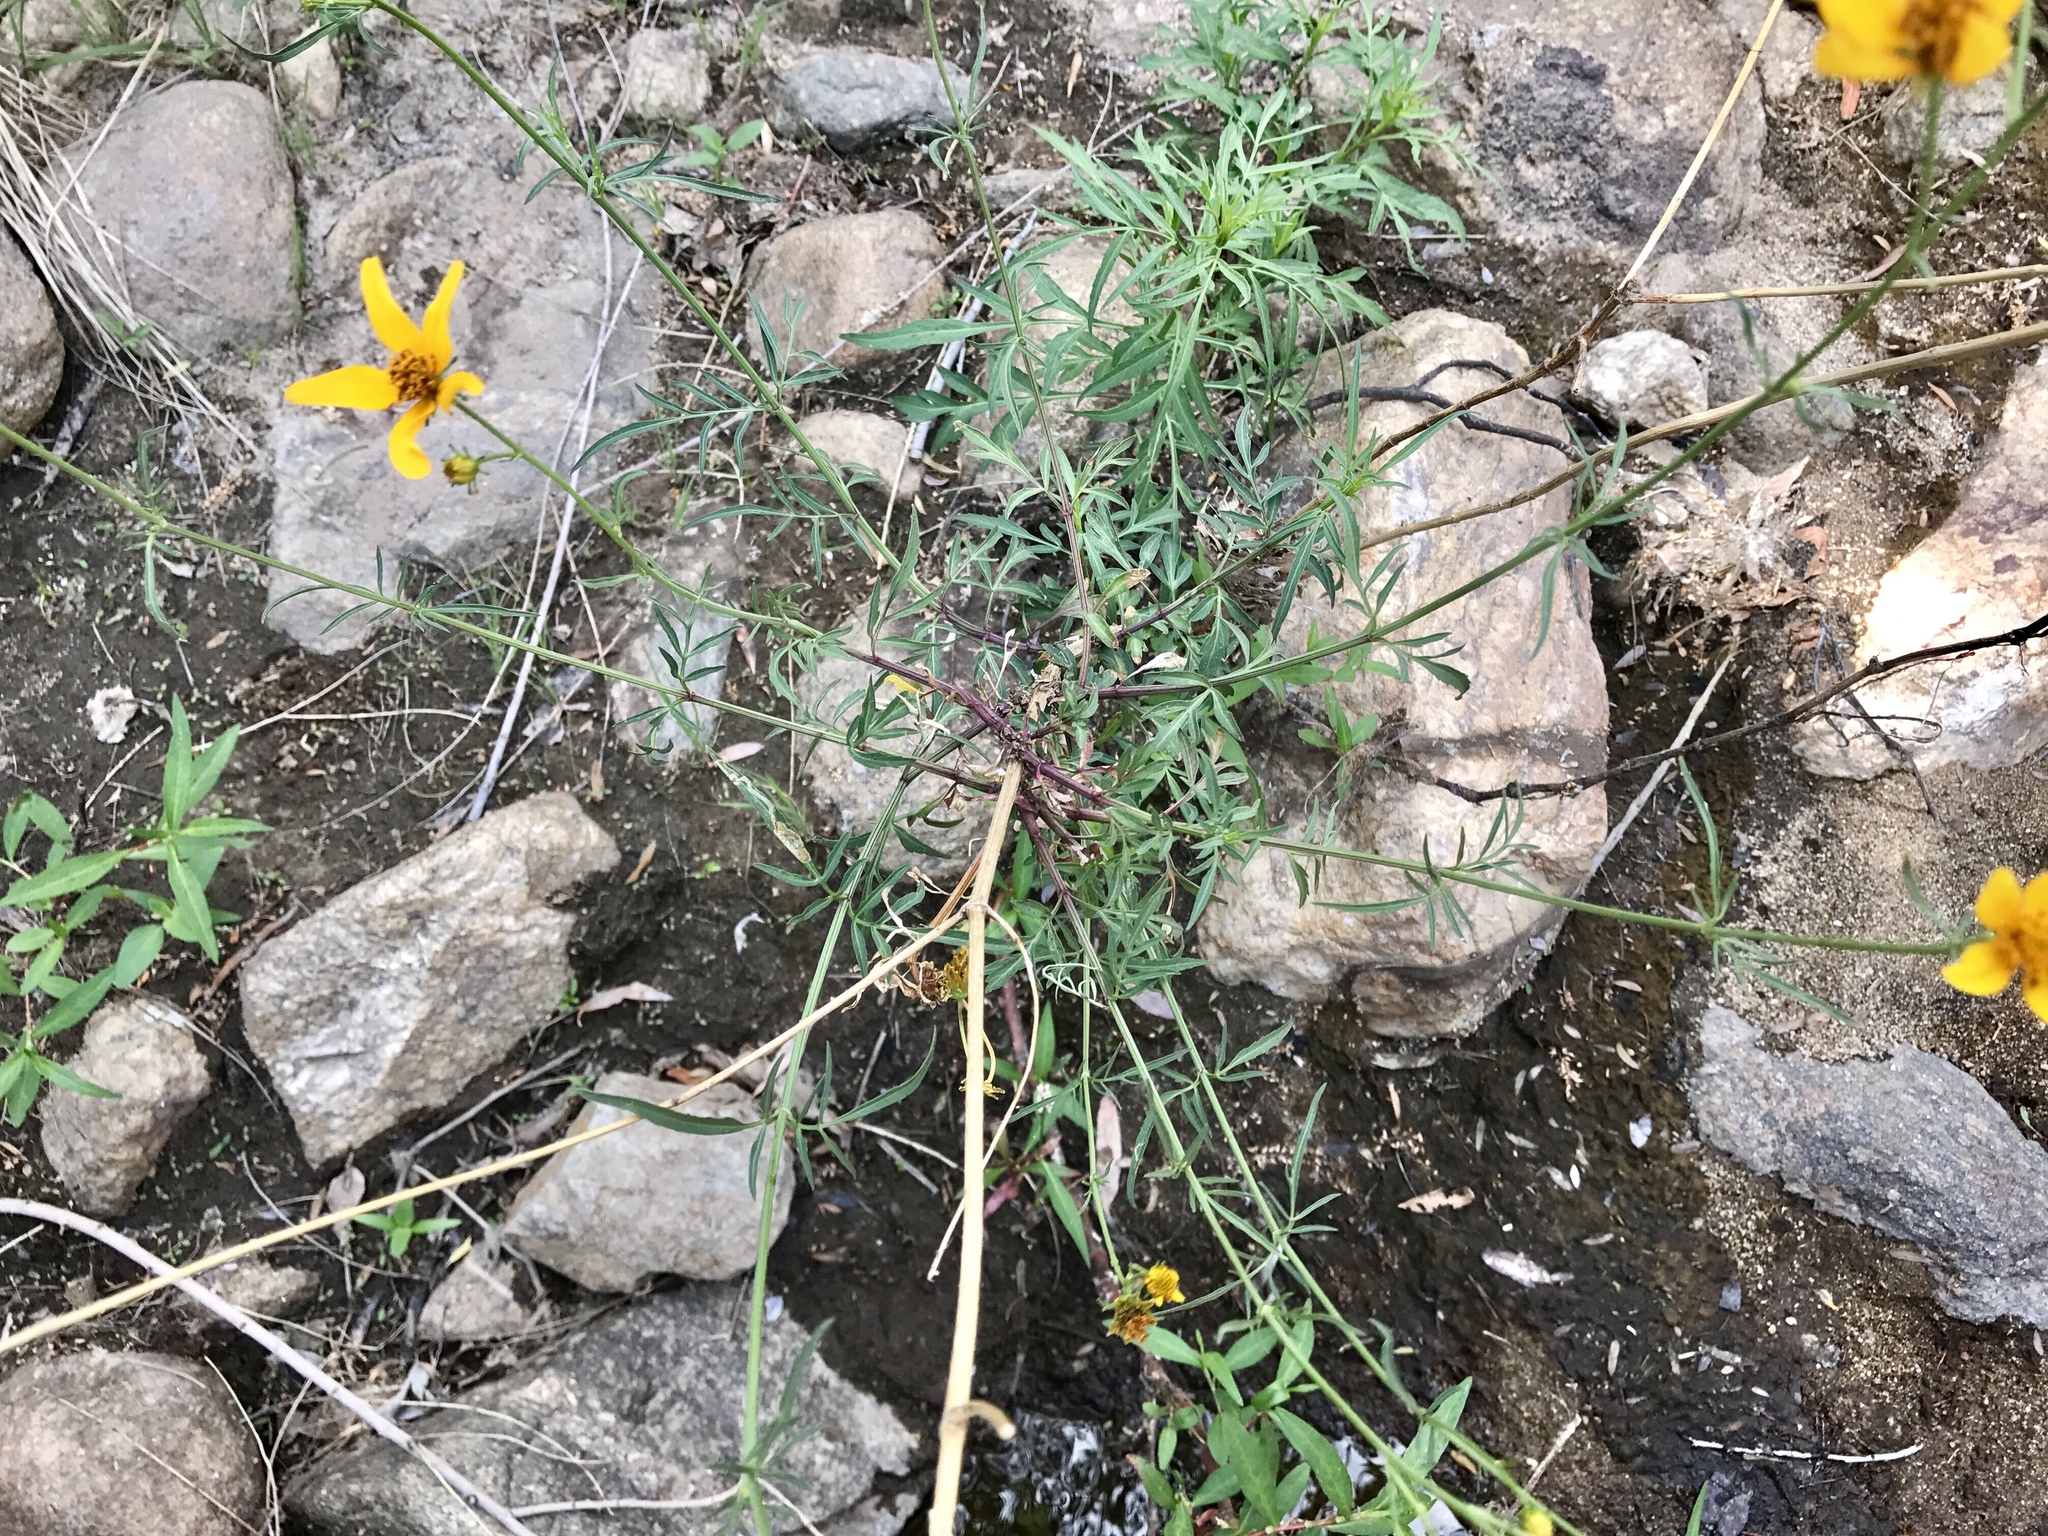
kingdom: Plantae
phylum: Tracheophyta
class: Magnoliopsida
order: Asterales
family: Asteraceae
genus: Bidens
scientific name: Bidens aurea
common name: Arizona beggar-ticks
